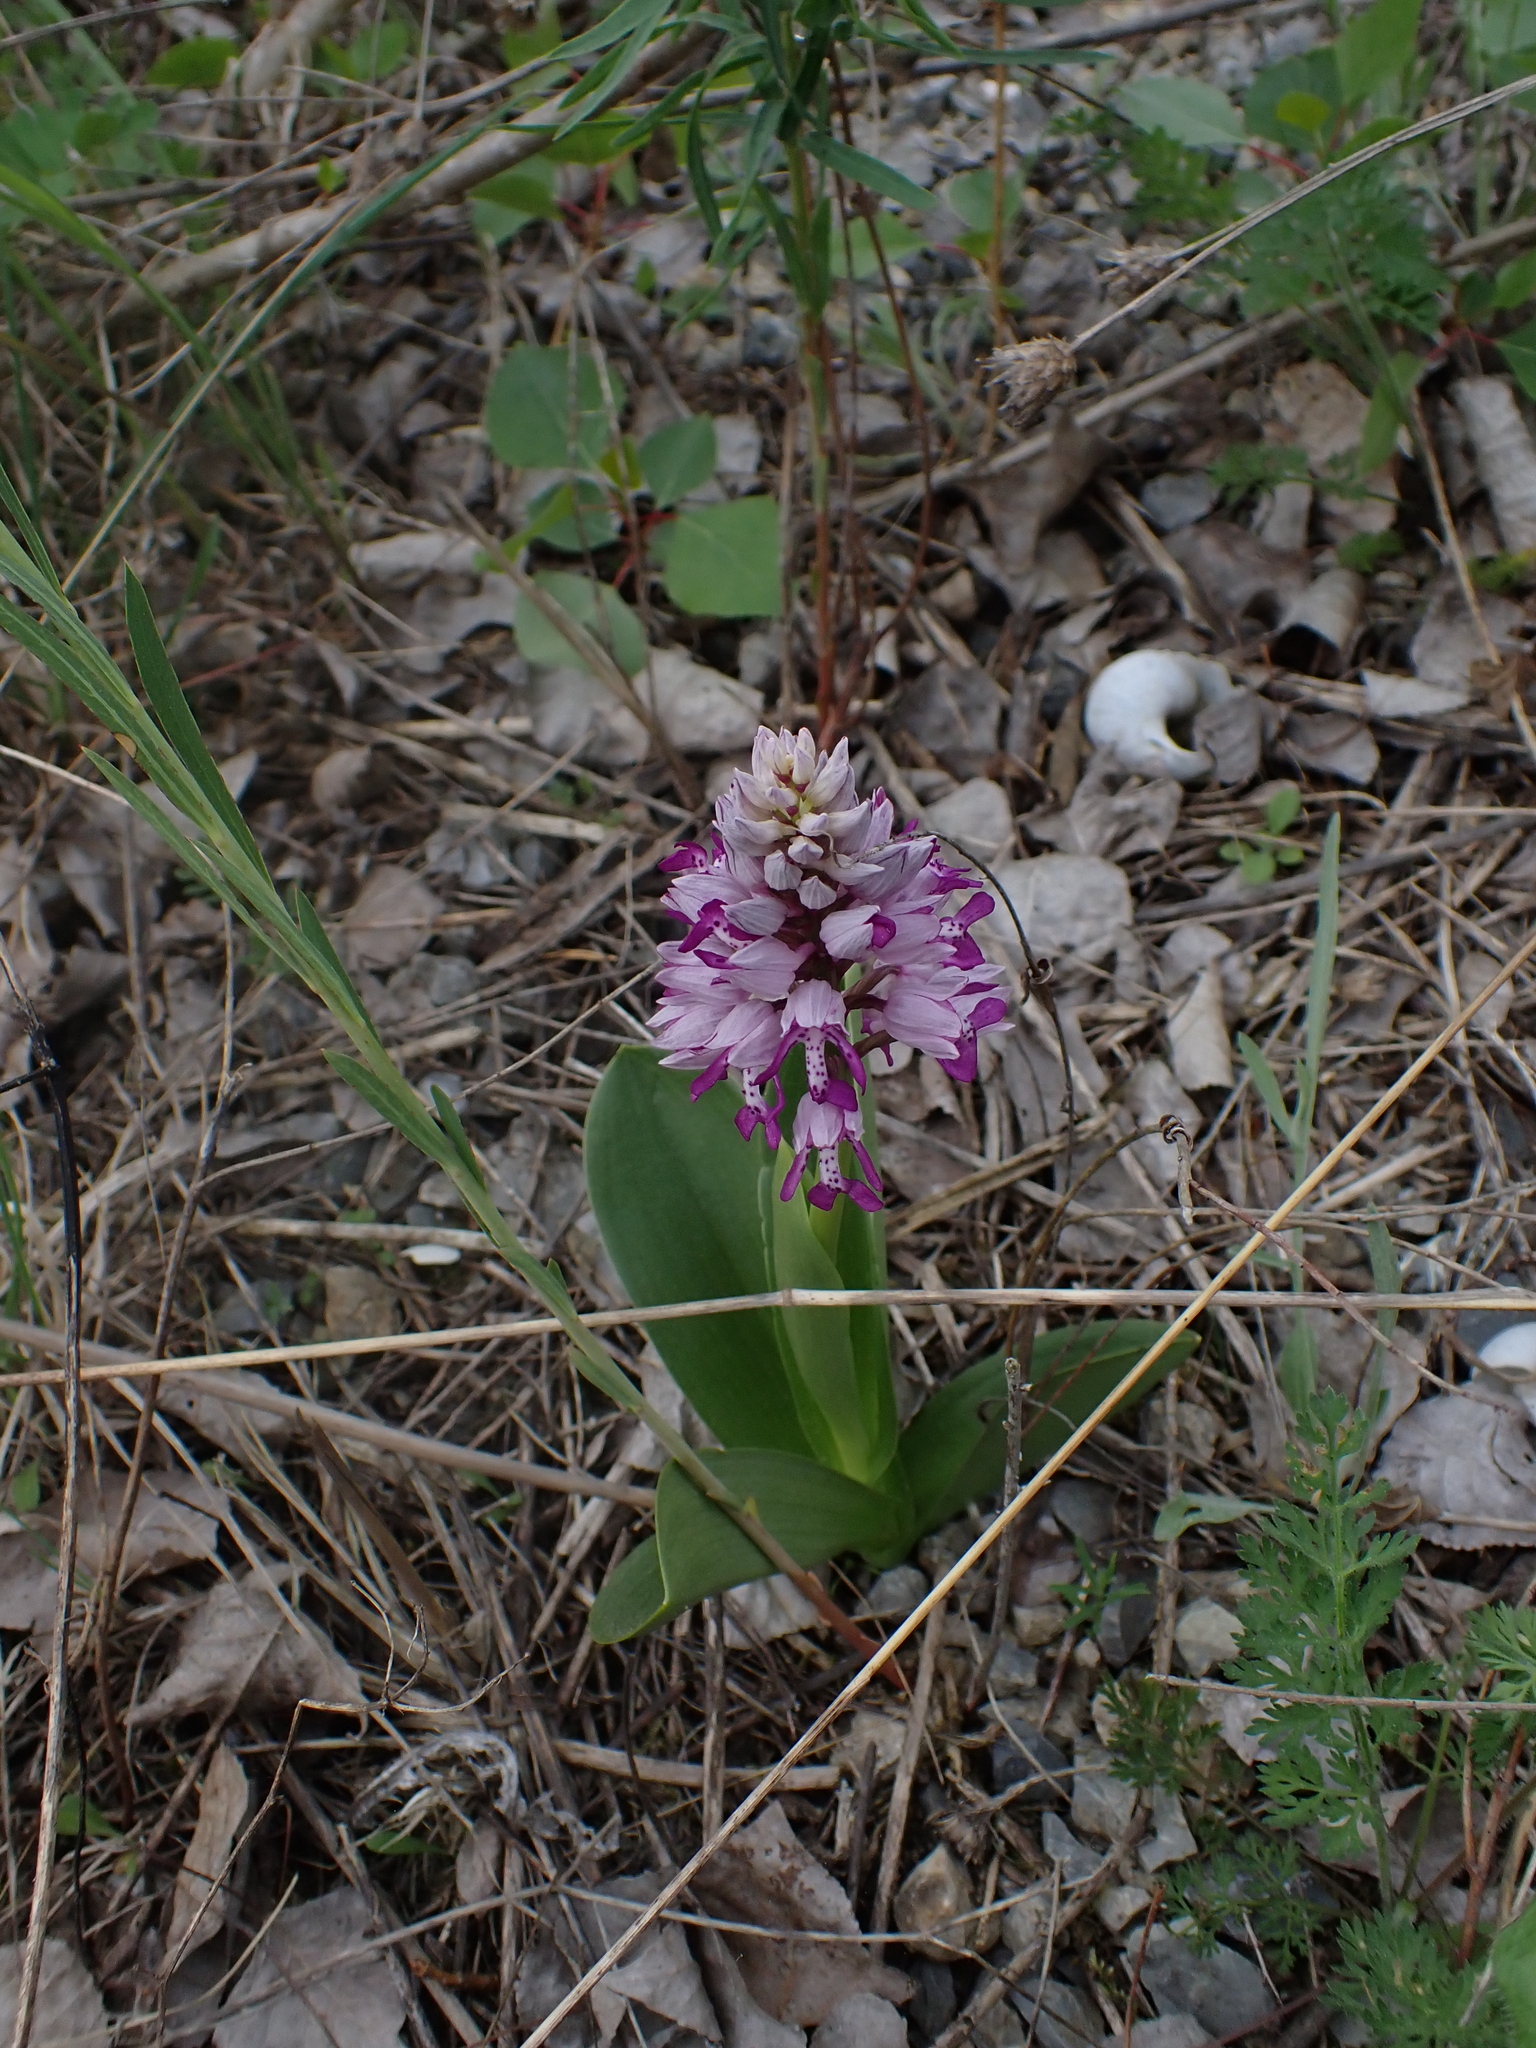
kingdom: Plantae
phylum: Tracheophyta
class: Liliopsida
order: Asparagales
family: Orchidaceae
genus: Orchis
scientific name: Orchis militaris
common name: Military orchid
